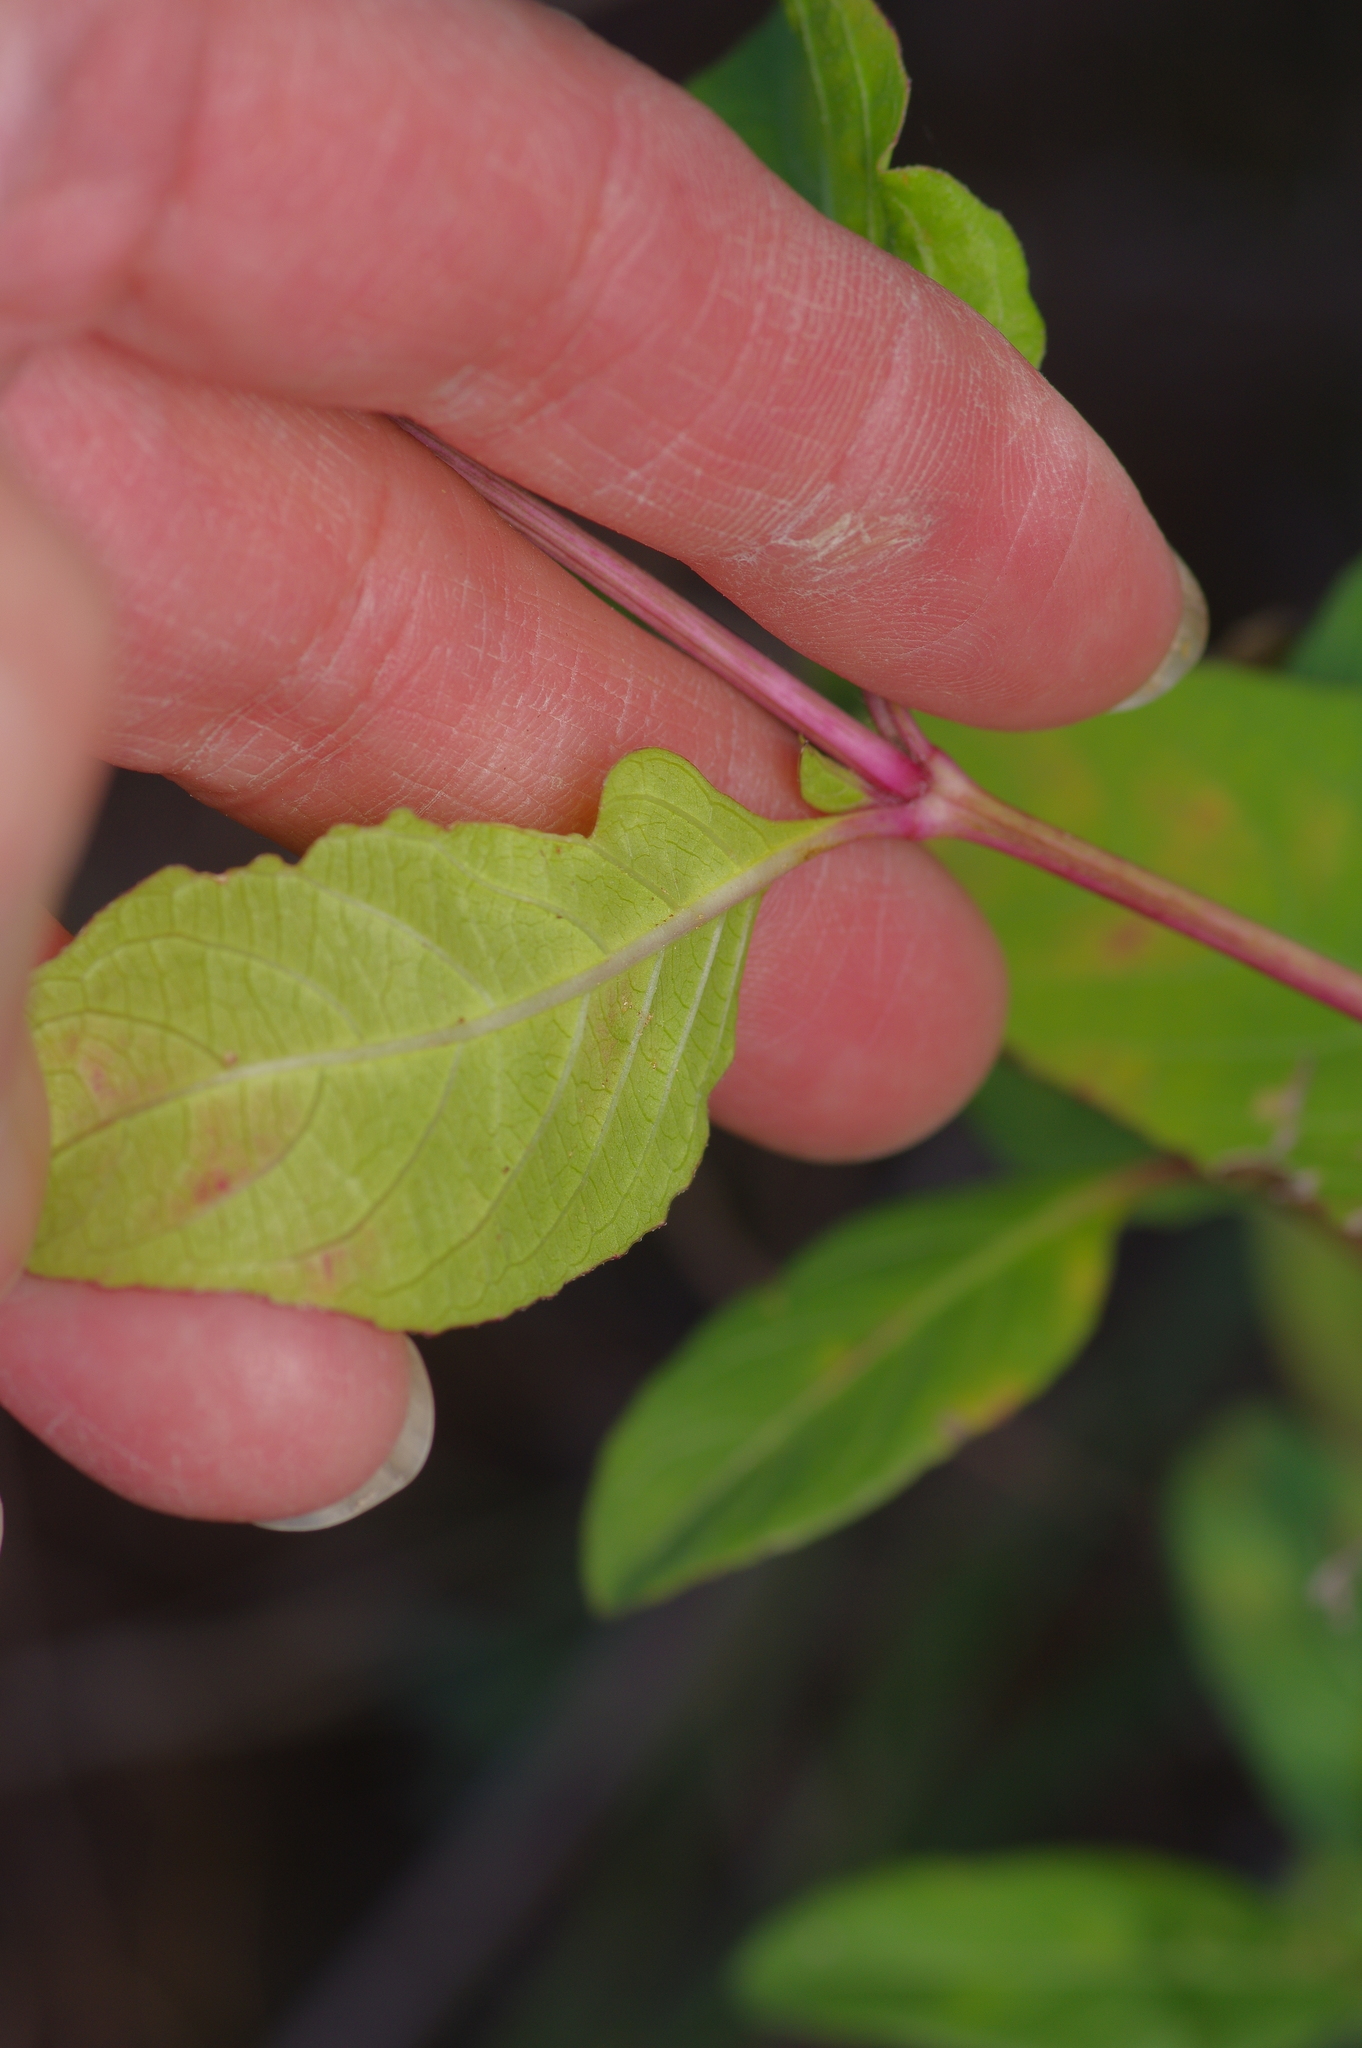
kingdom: Plantae
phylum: Tracheophyta
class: Magnoliopsida
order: Dipsacales
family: Viburnaceae
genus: Viburnum
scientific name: Viburnum rufidulum
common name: Blue haw
